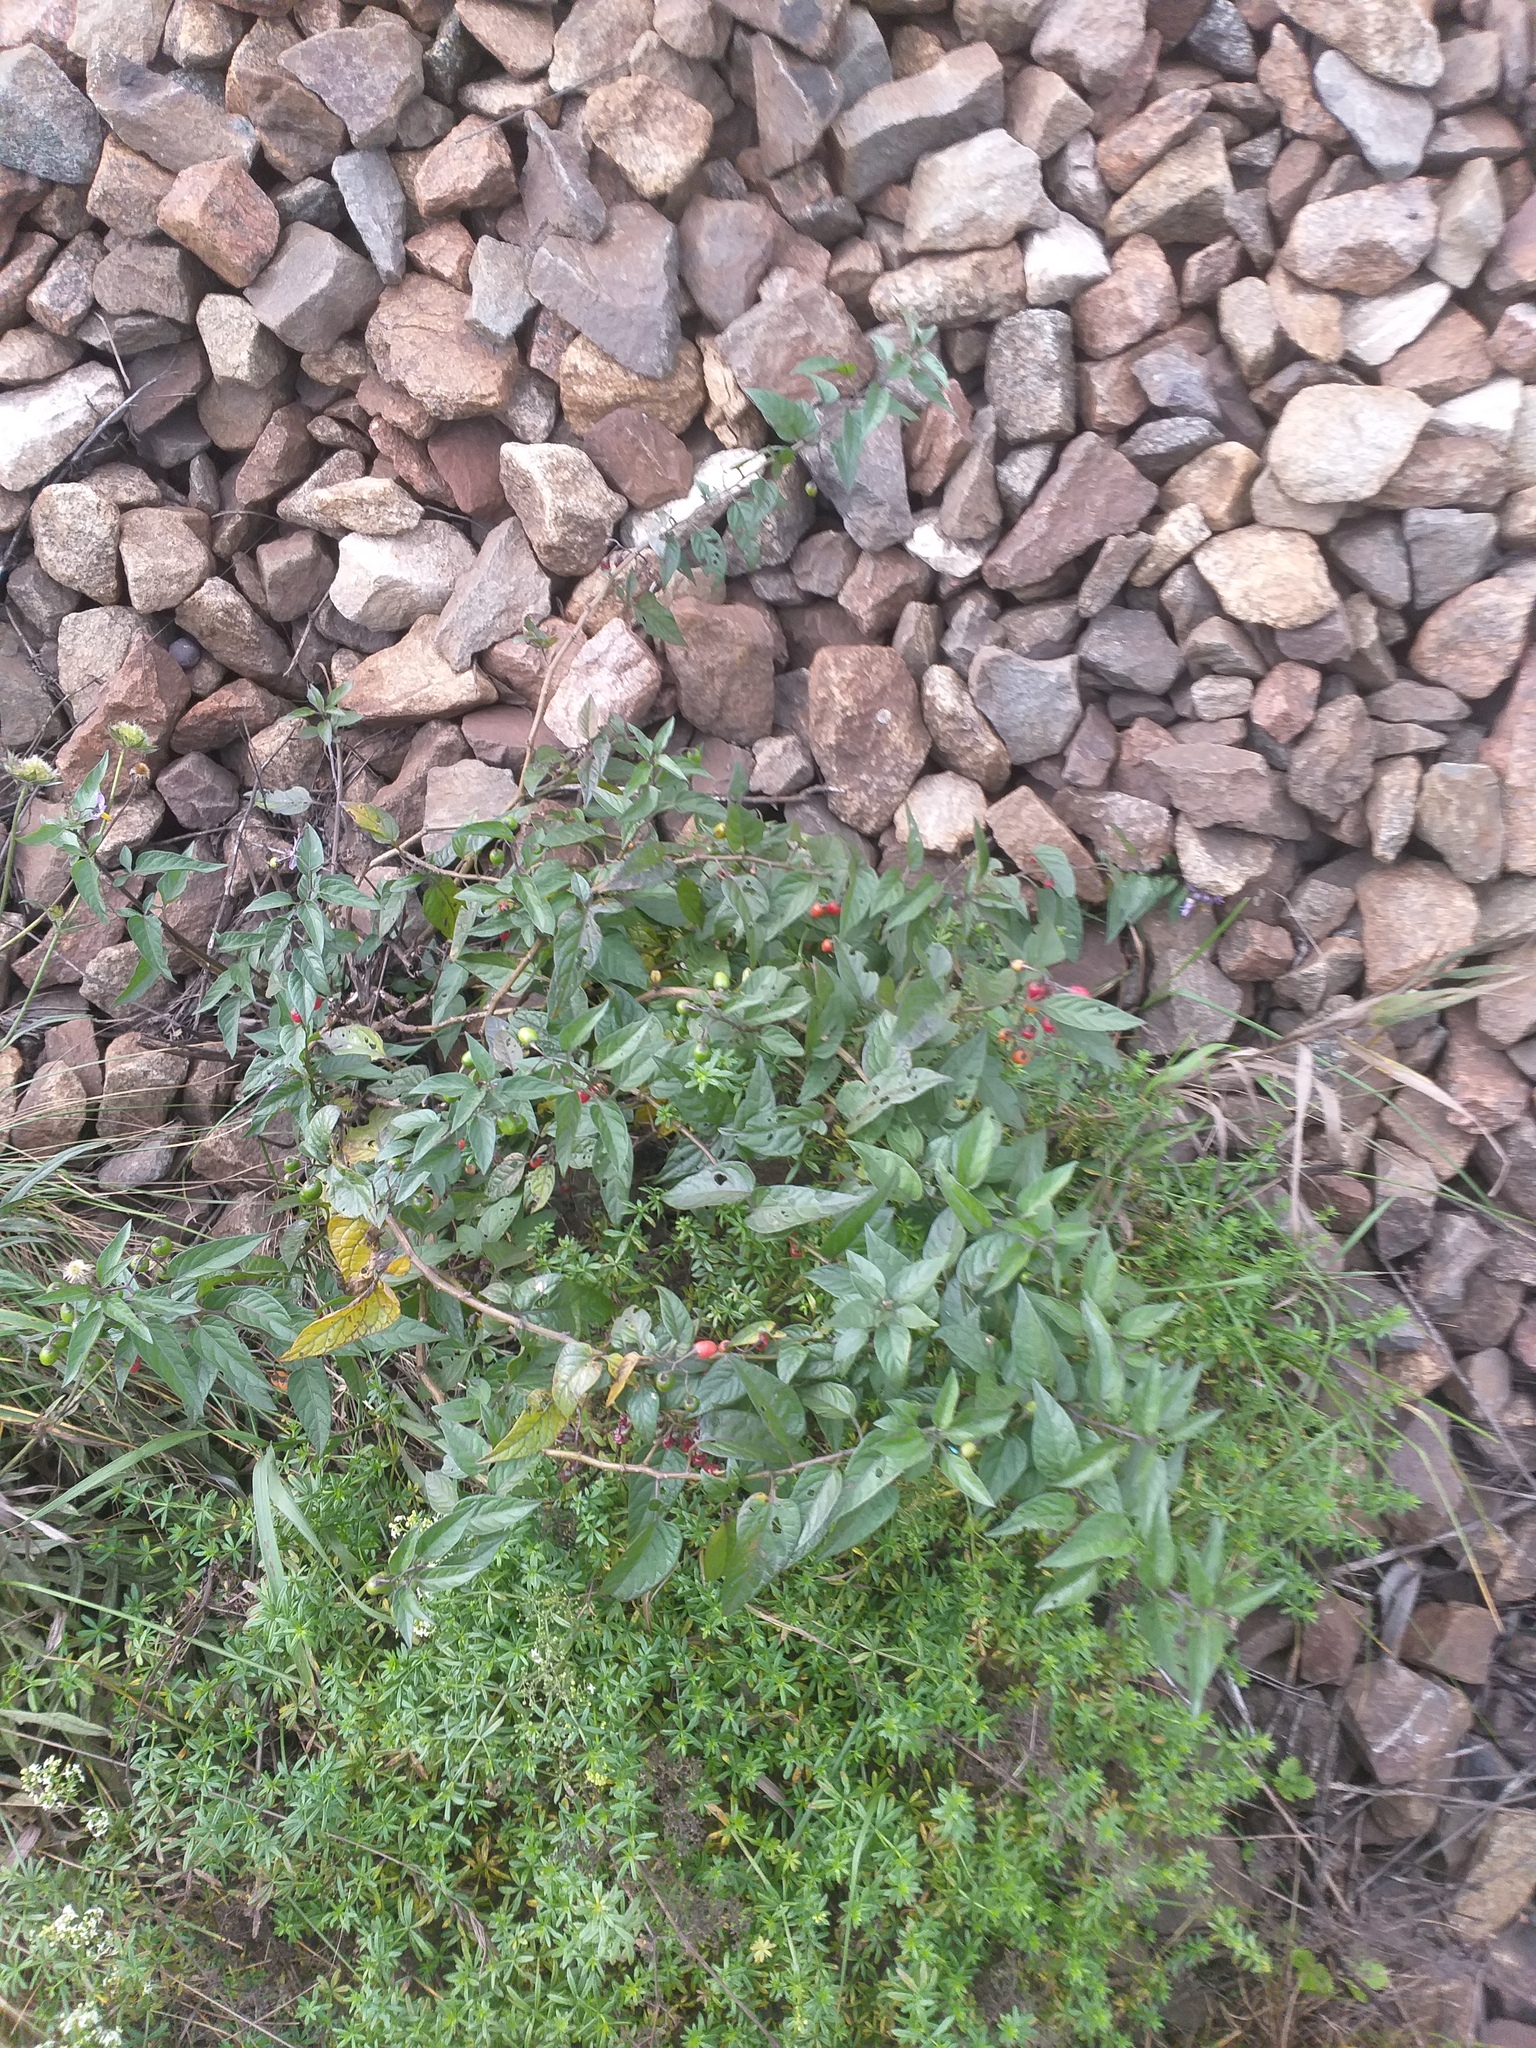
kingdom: Plantae
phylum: Tracheophyta
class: Magnoliopsida
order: Solanales
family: Solanaceae
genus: Solanum
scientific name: Solanum dulcamara
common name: Climbing nightshade
